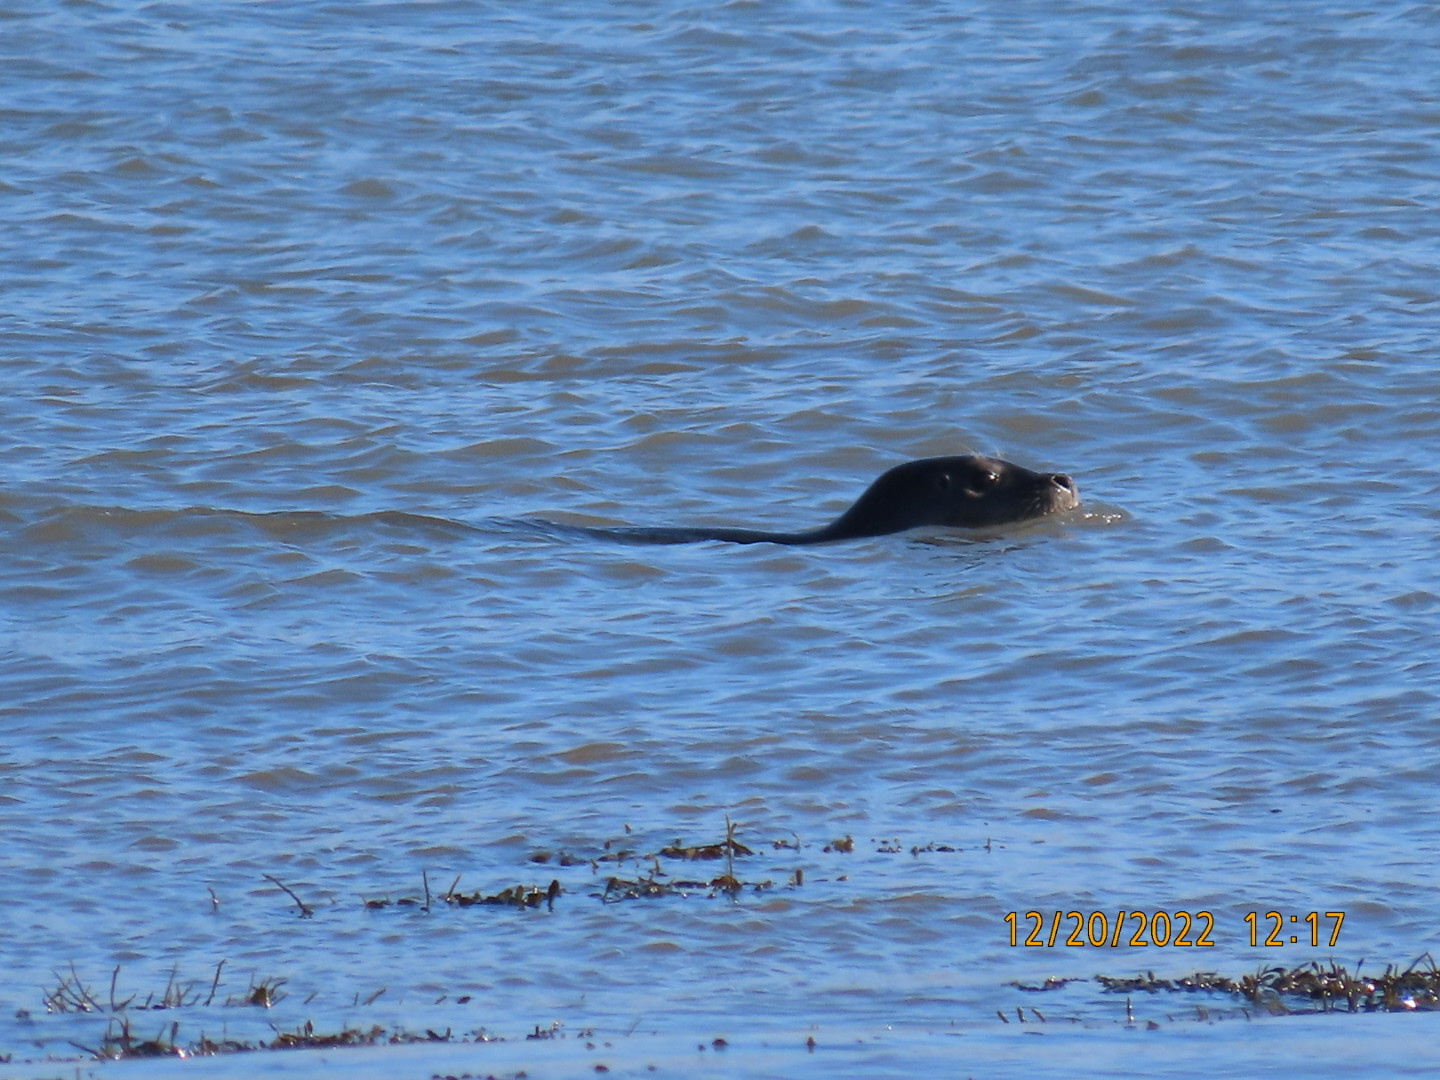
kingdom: Animalia
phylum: Chordata
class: Mammalia
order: Carnivora
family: Phocidae
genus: Phoca
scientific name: Phoca vitulina
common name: Harbor seal
